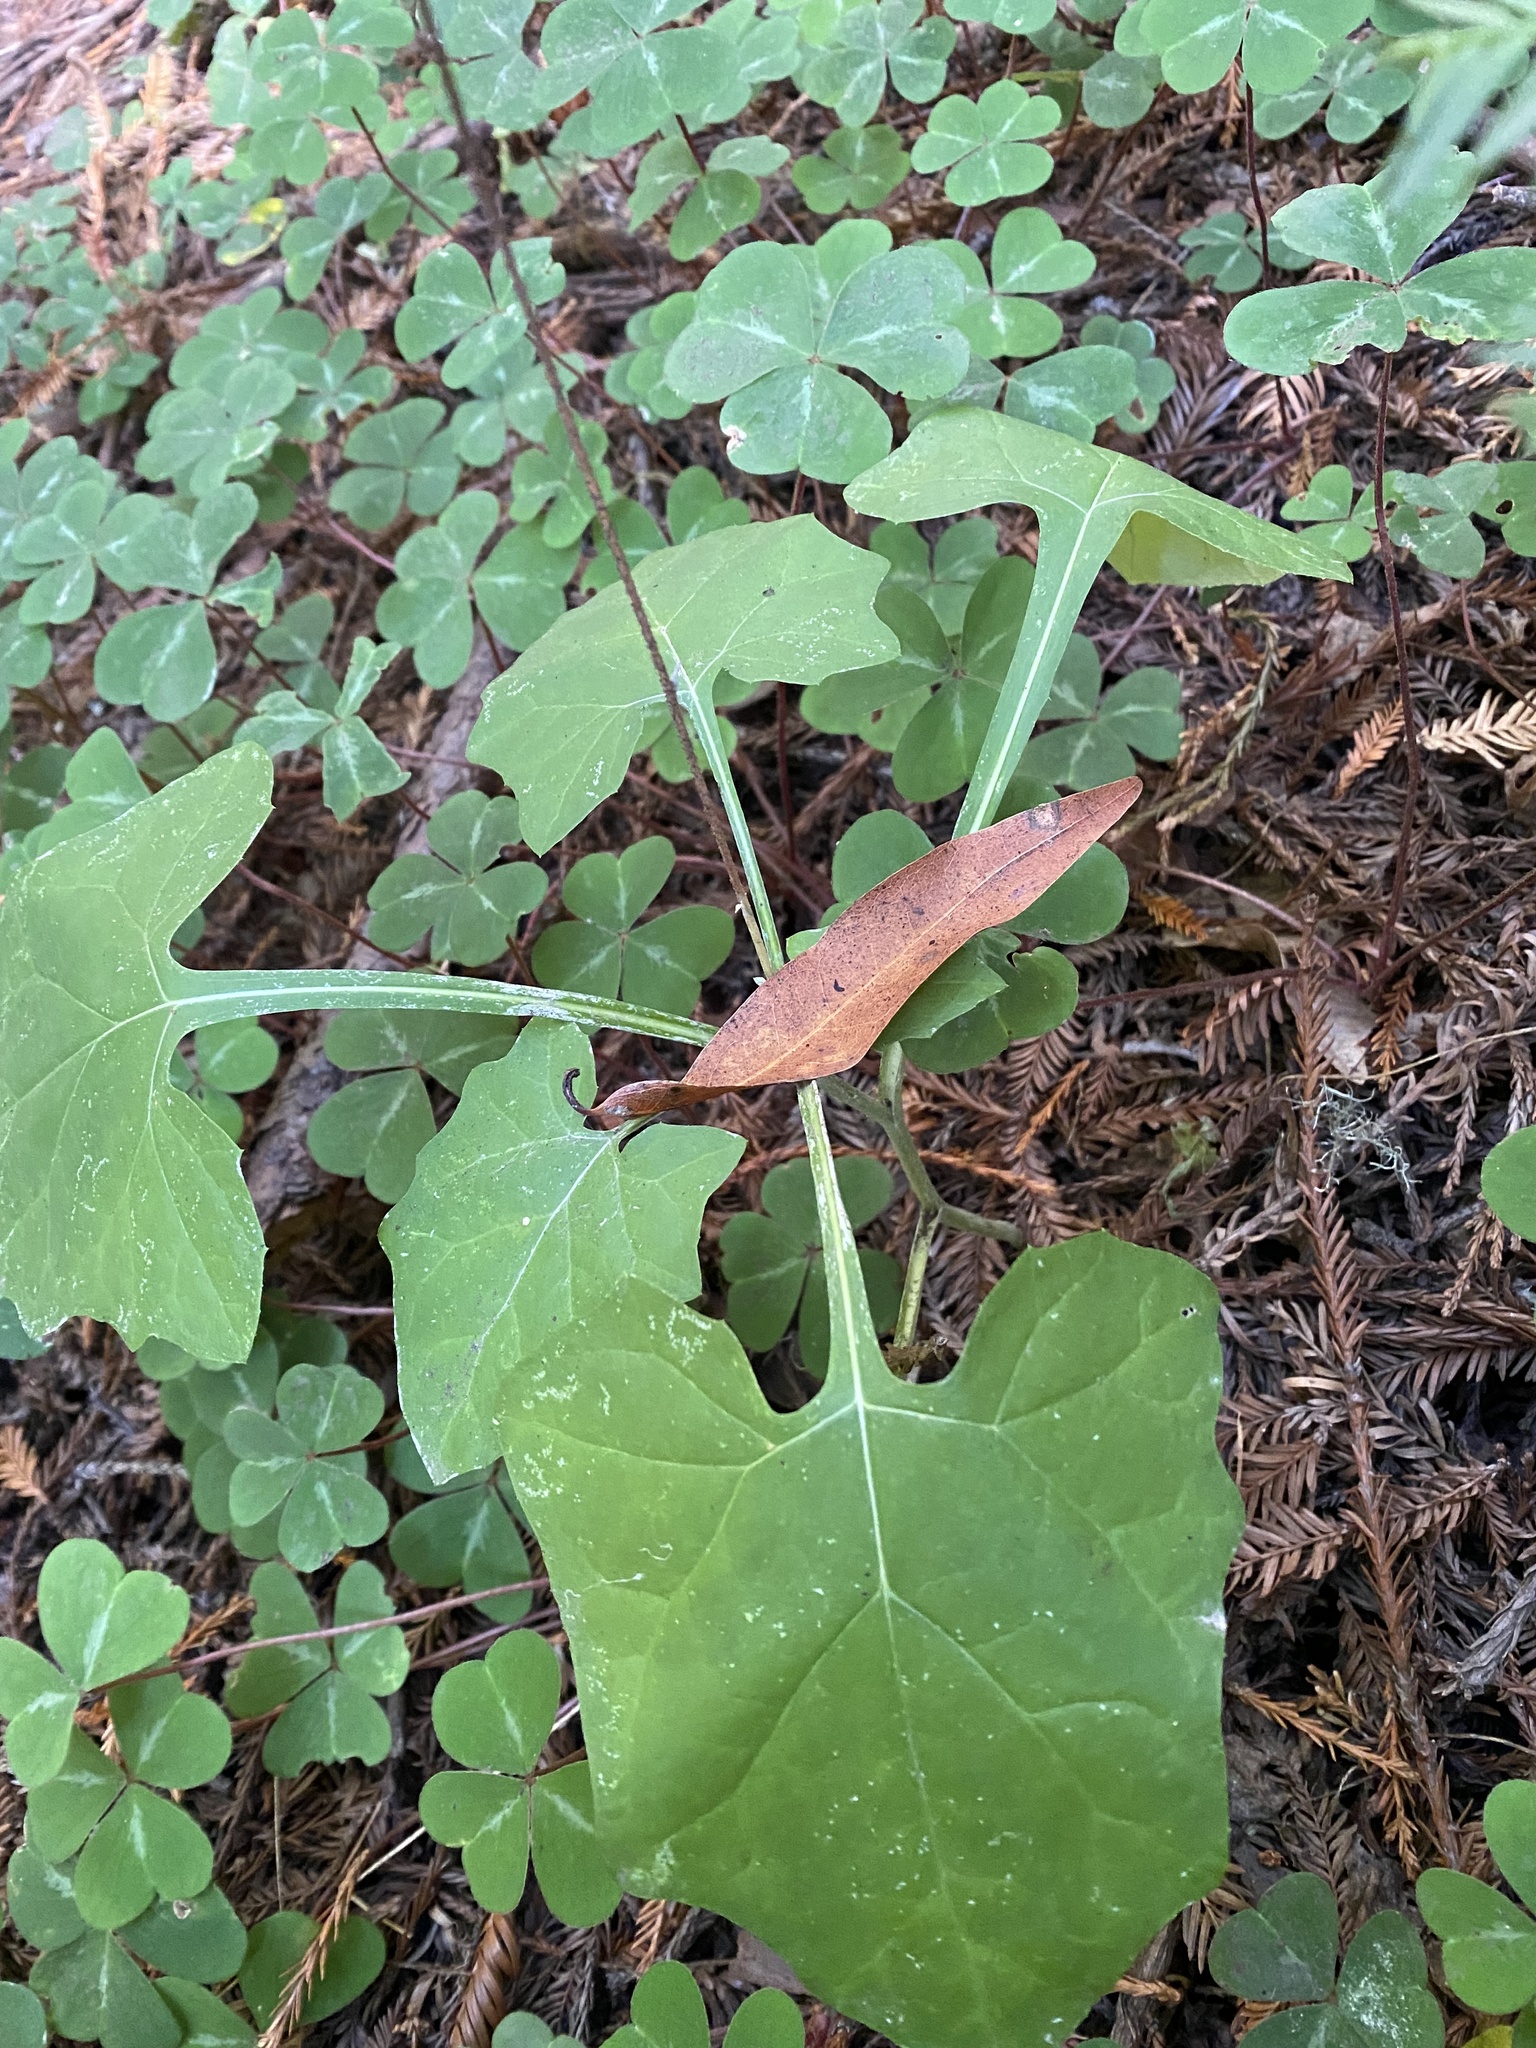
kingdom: Plantae
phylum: Tracheophyta
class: Magnoliopsida
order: Asterales
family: Asteraceae
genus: Adenocaulon
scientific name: Adenocaulon bicolor
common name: Trailplant
